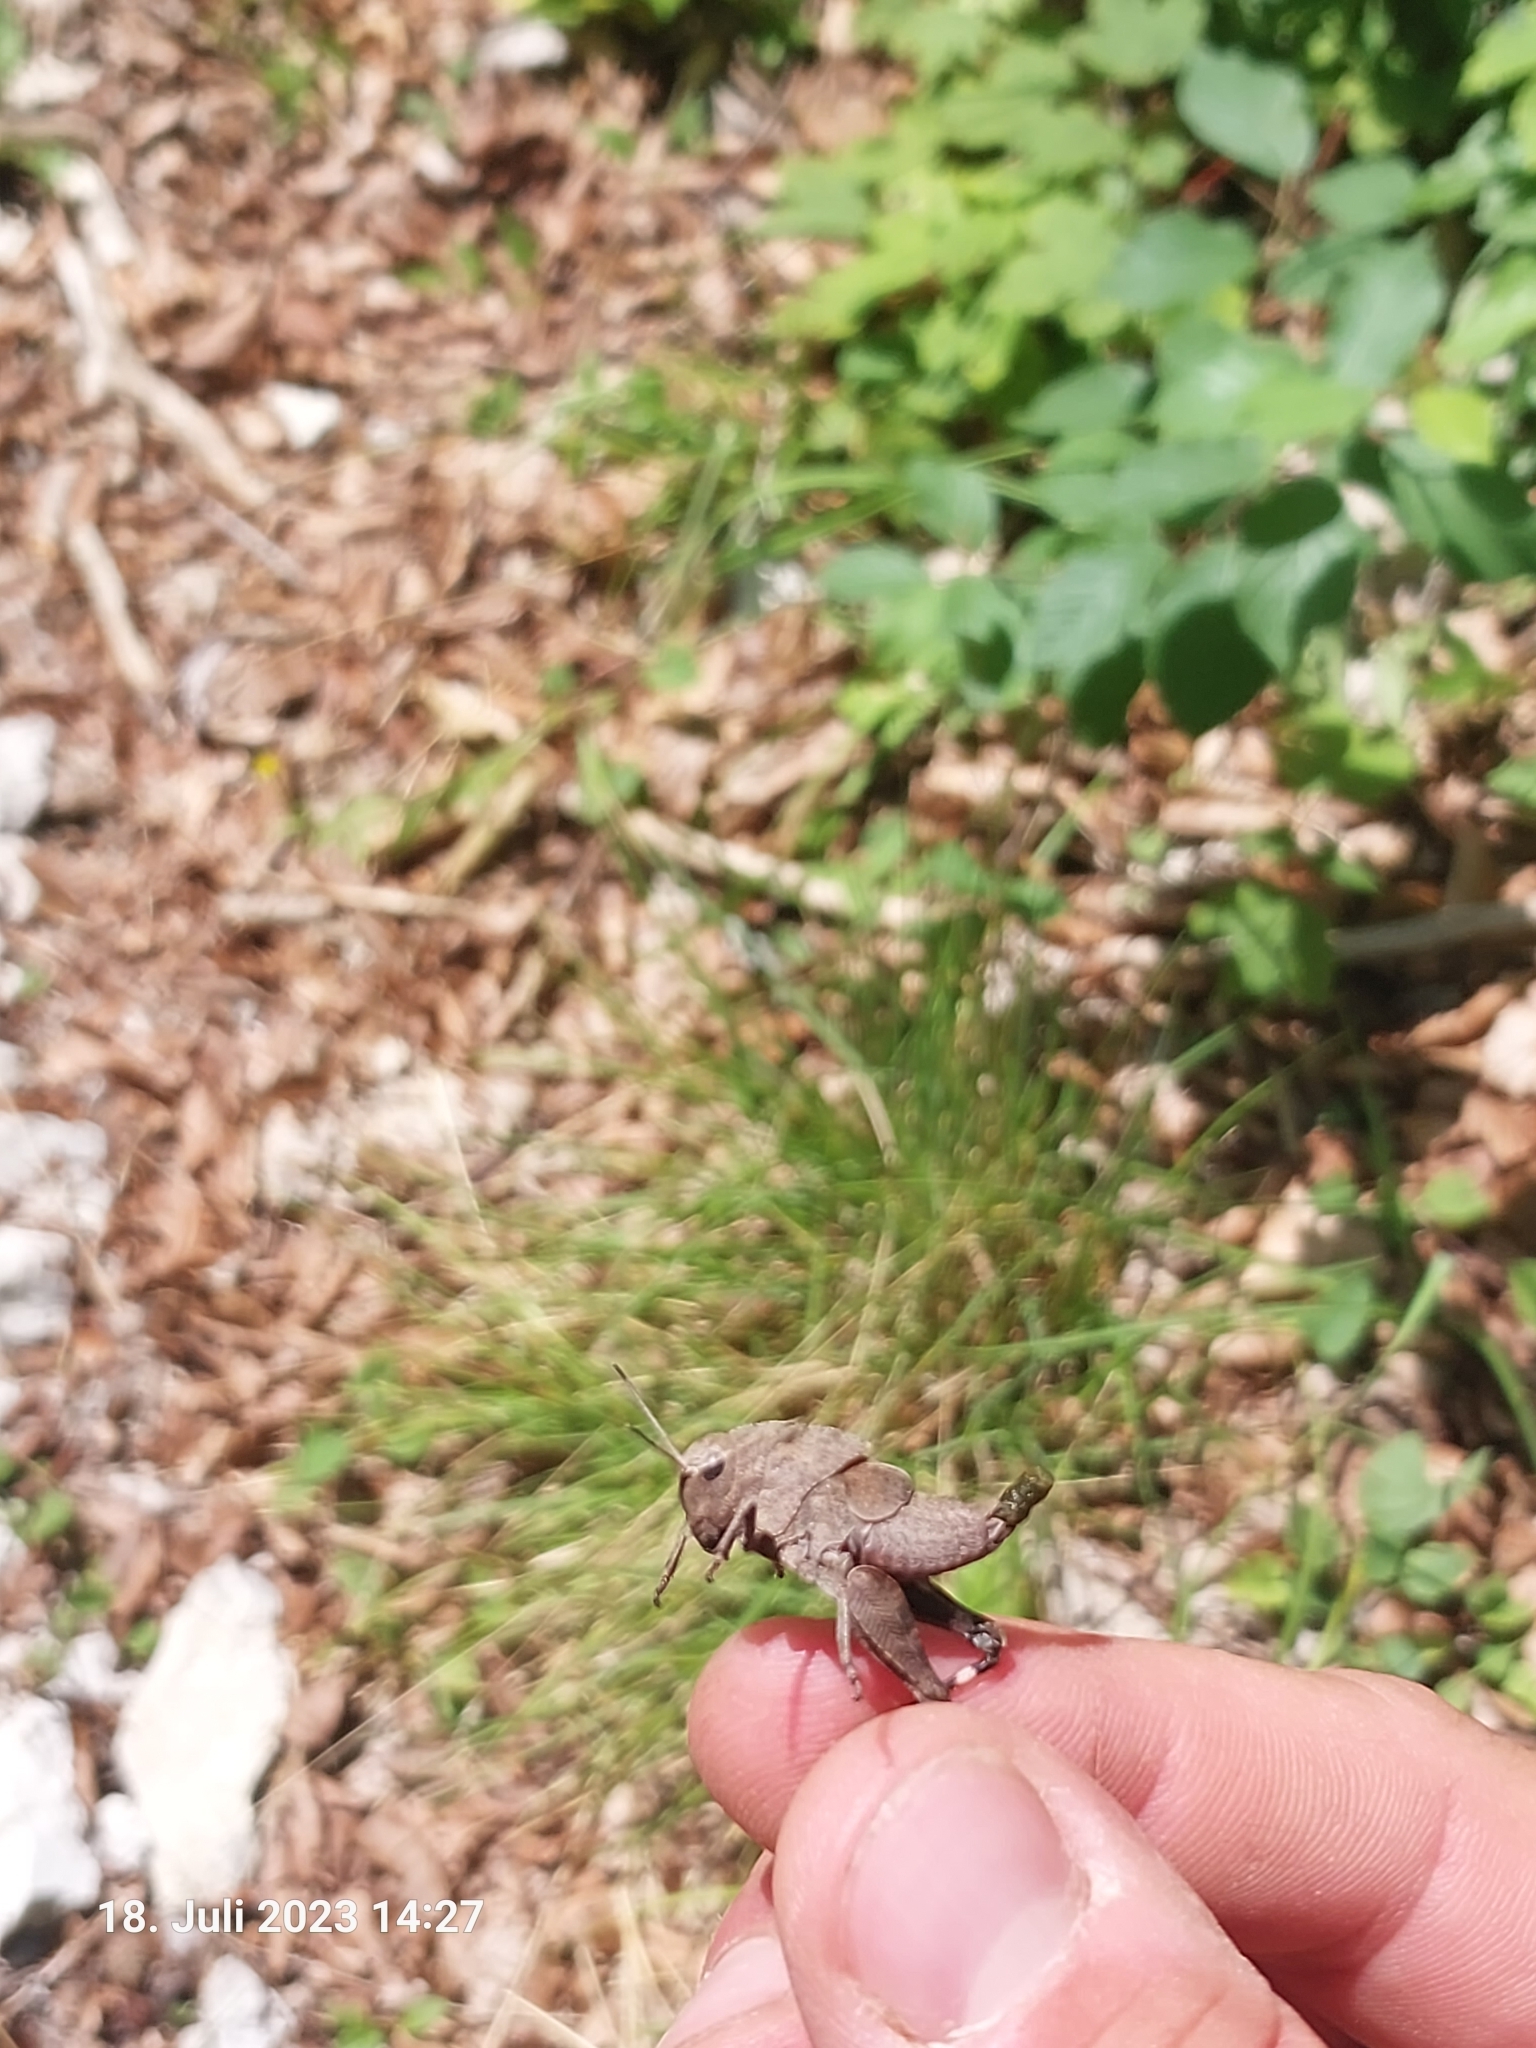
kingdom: Animalia
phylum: Arthropoda
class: Insecta
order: Orthoptera
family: Acrididae
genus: Psophus
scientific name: Psophus stridulus
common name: Rattle grasshopper
